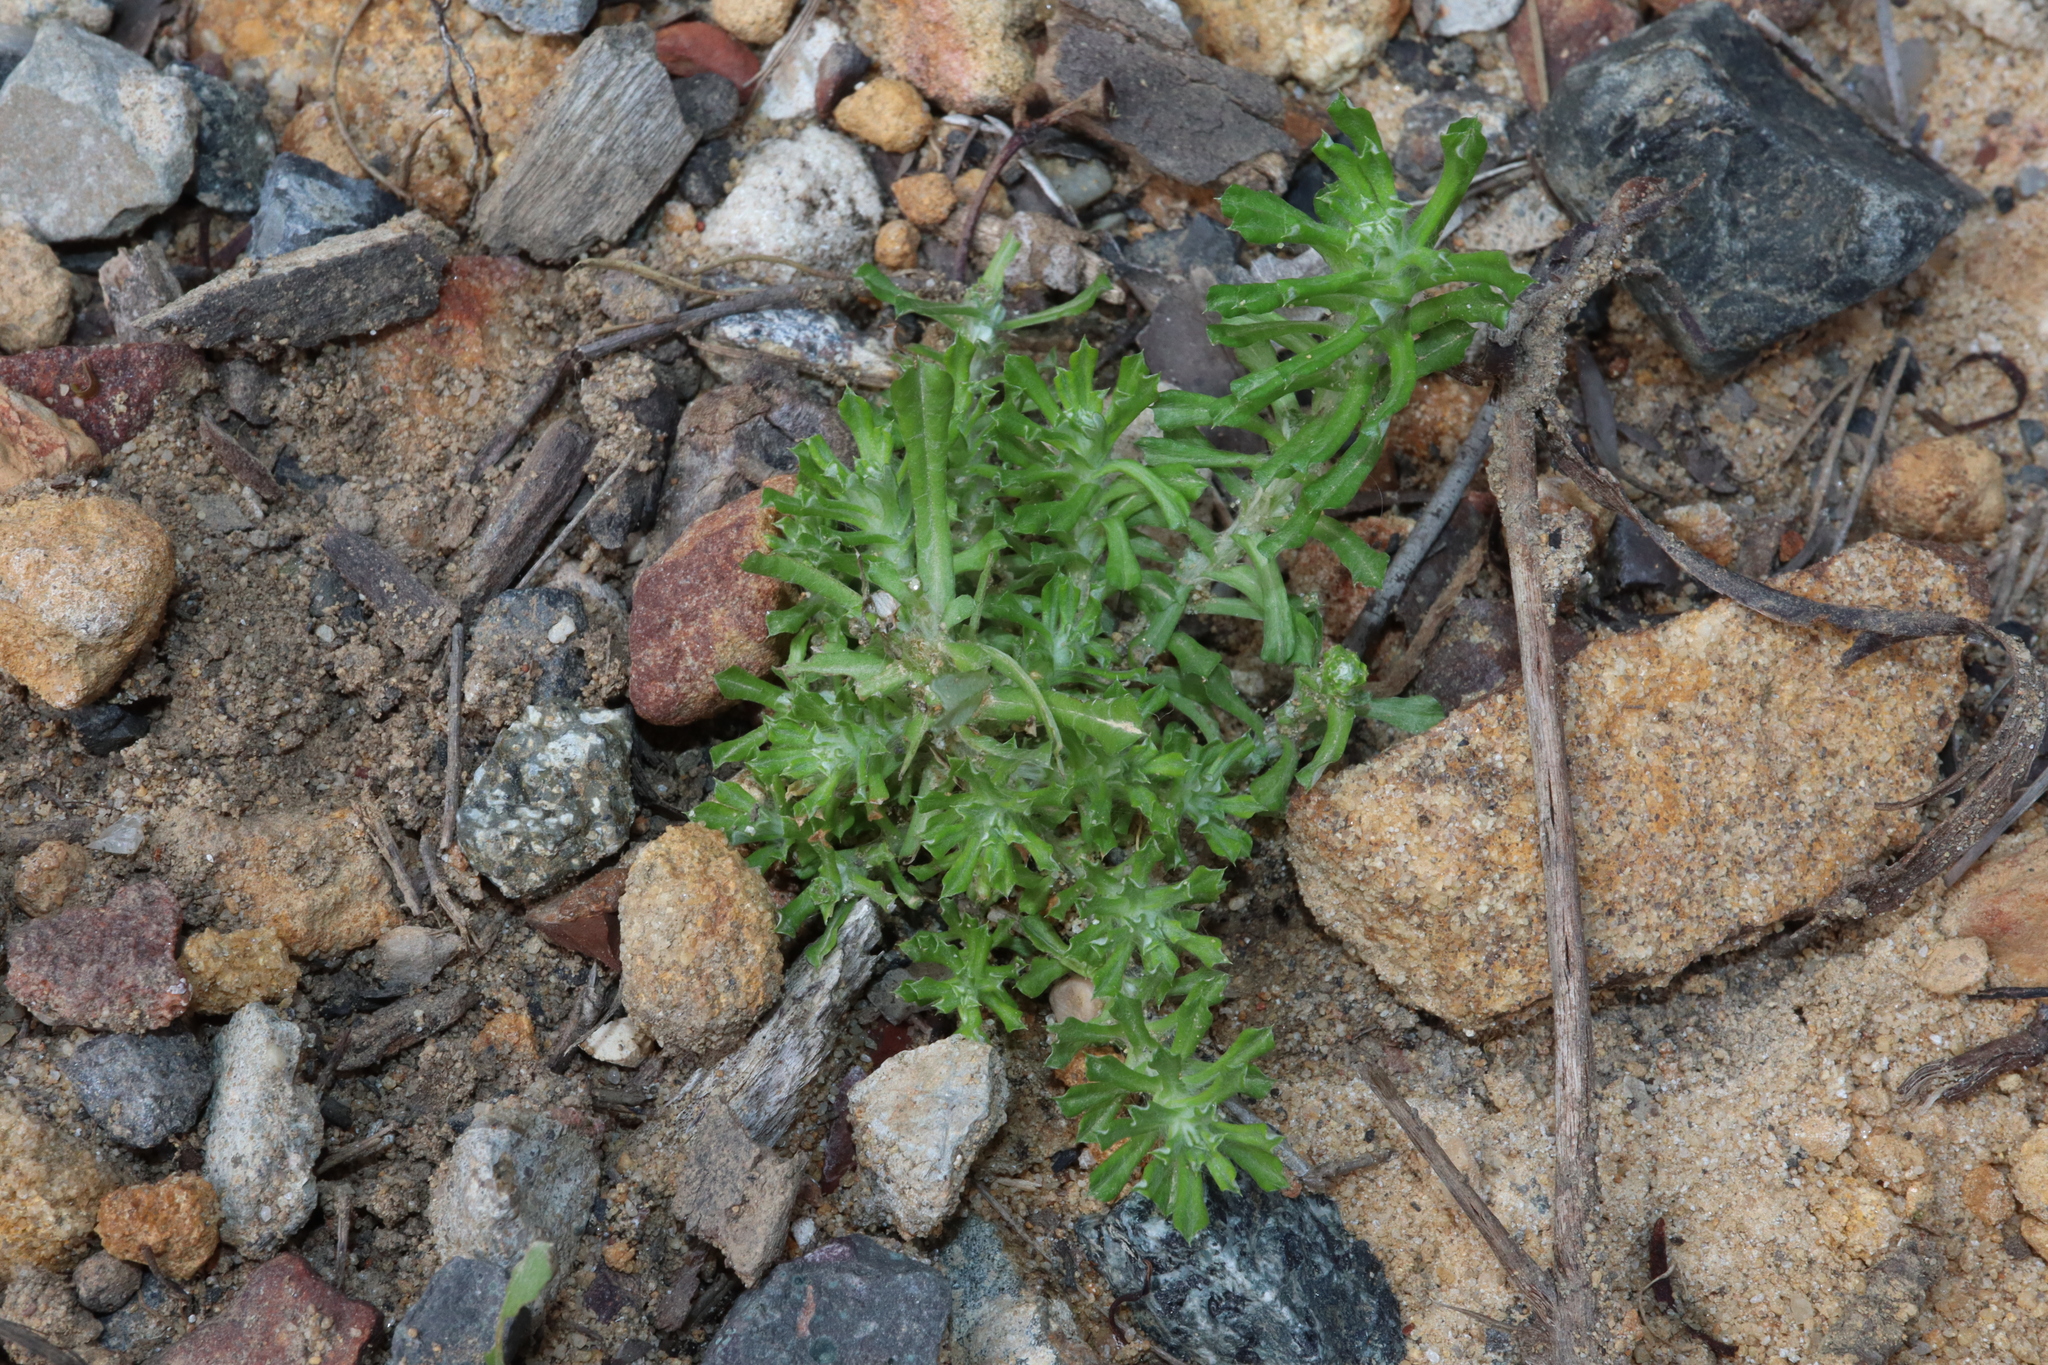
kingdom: Plantae
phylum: Tracheophyta
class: Magnoliopsida
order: Asterales
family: Asteraceae
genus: Facelis
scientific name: Facelis retusa
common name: Annual trampweed
